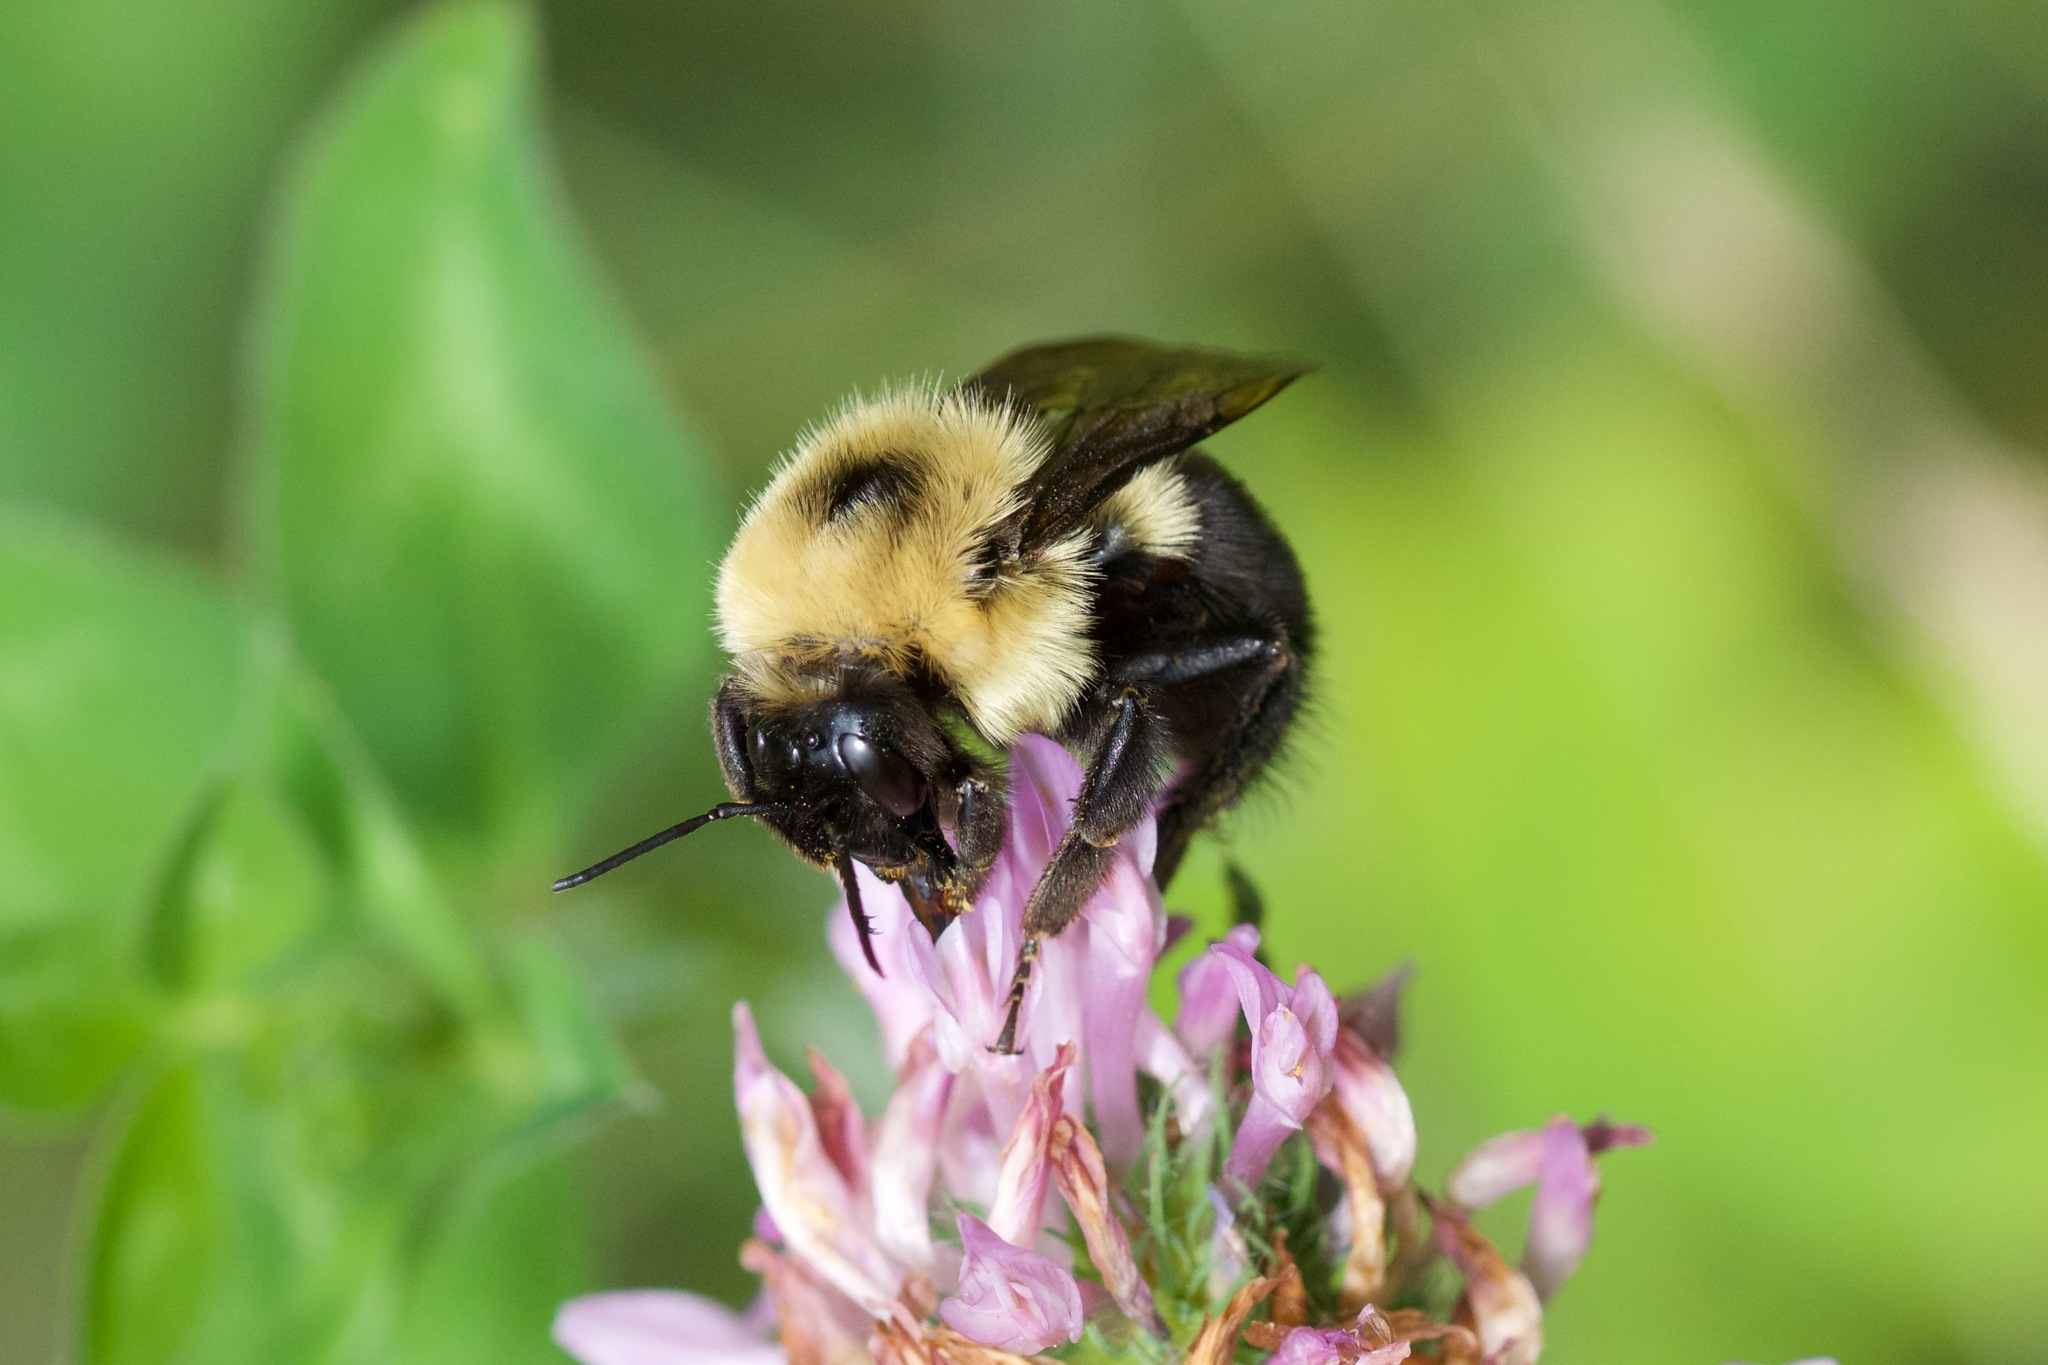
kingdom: Animalia
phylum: Arthropoda
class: Insecta
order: Hymenoptera
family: Apidae
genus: Bombus
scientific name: Bombus bimaculatus
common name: Two-spotted bumble bee
